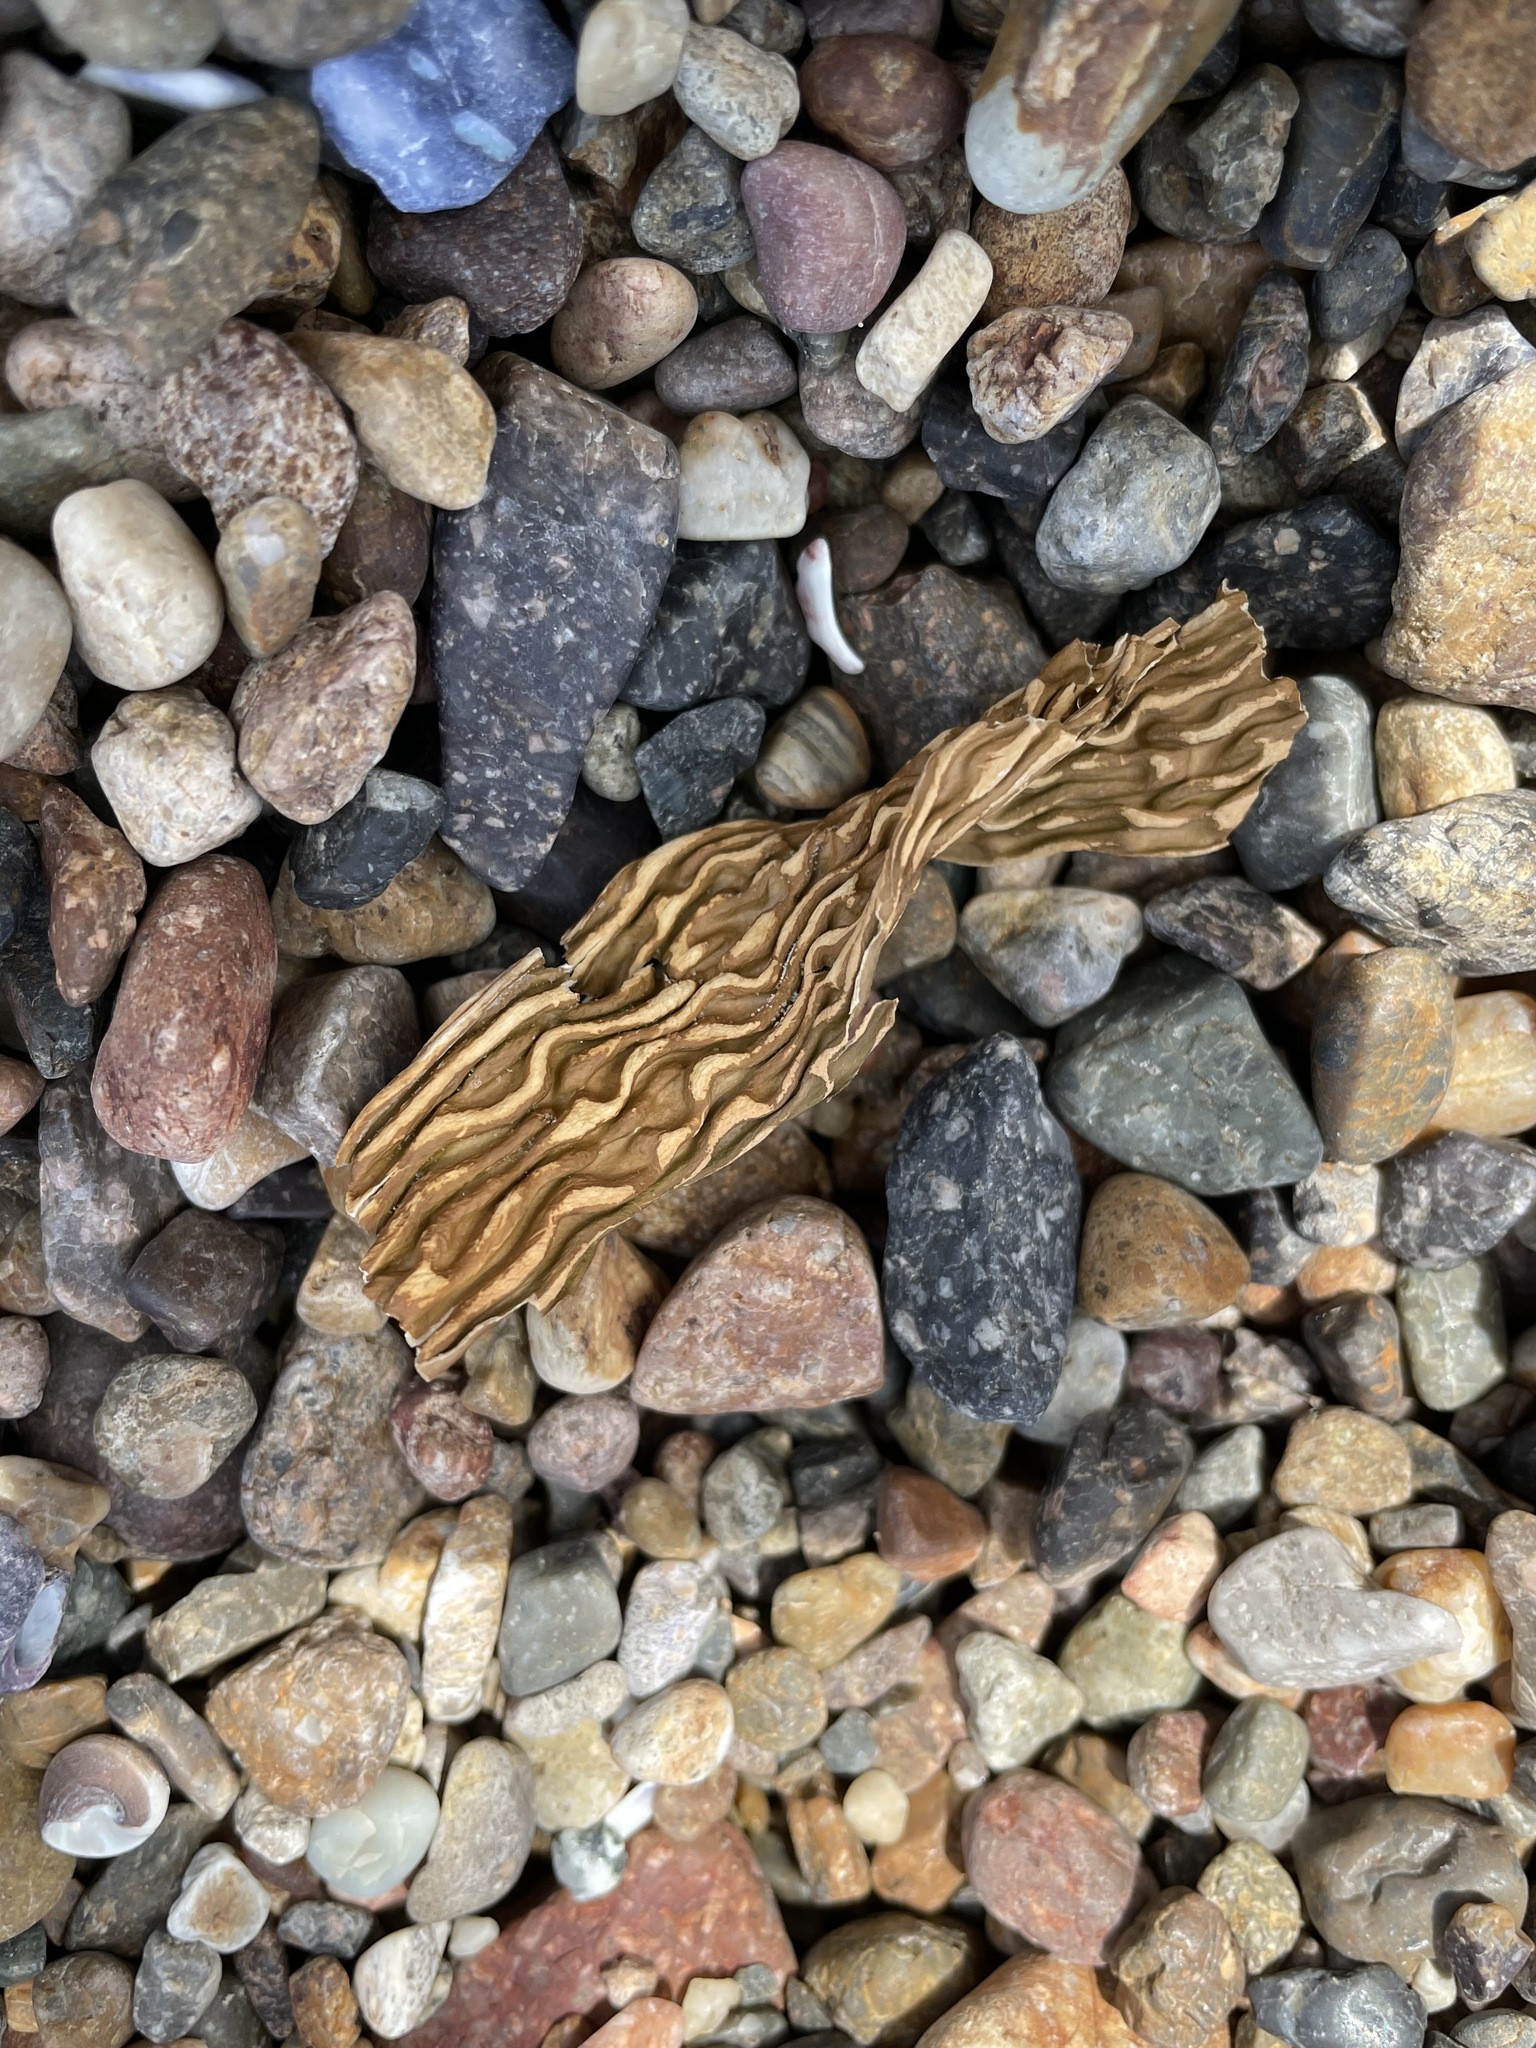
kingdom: Chromista
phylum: Ochrophyta
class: Phaeophyceae
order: Laminariales
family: Laminariaceae
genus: Macrocystis
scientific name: Macrocystis pyrifera
